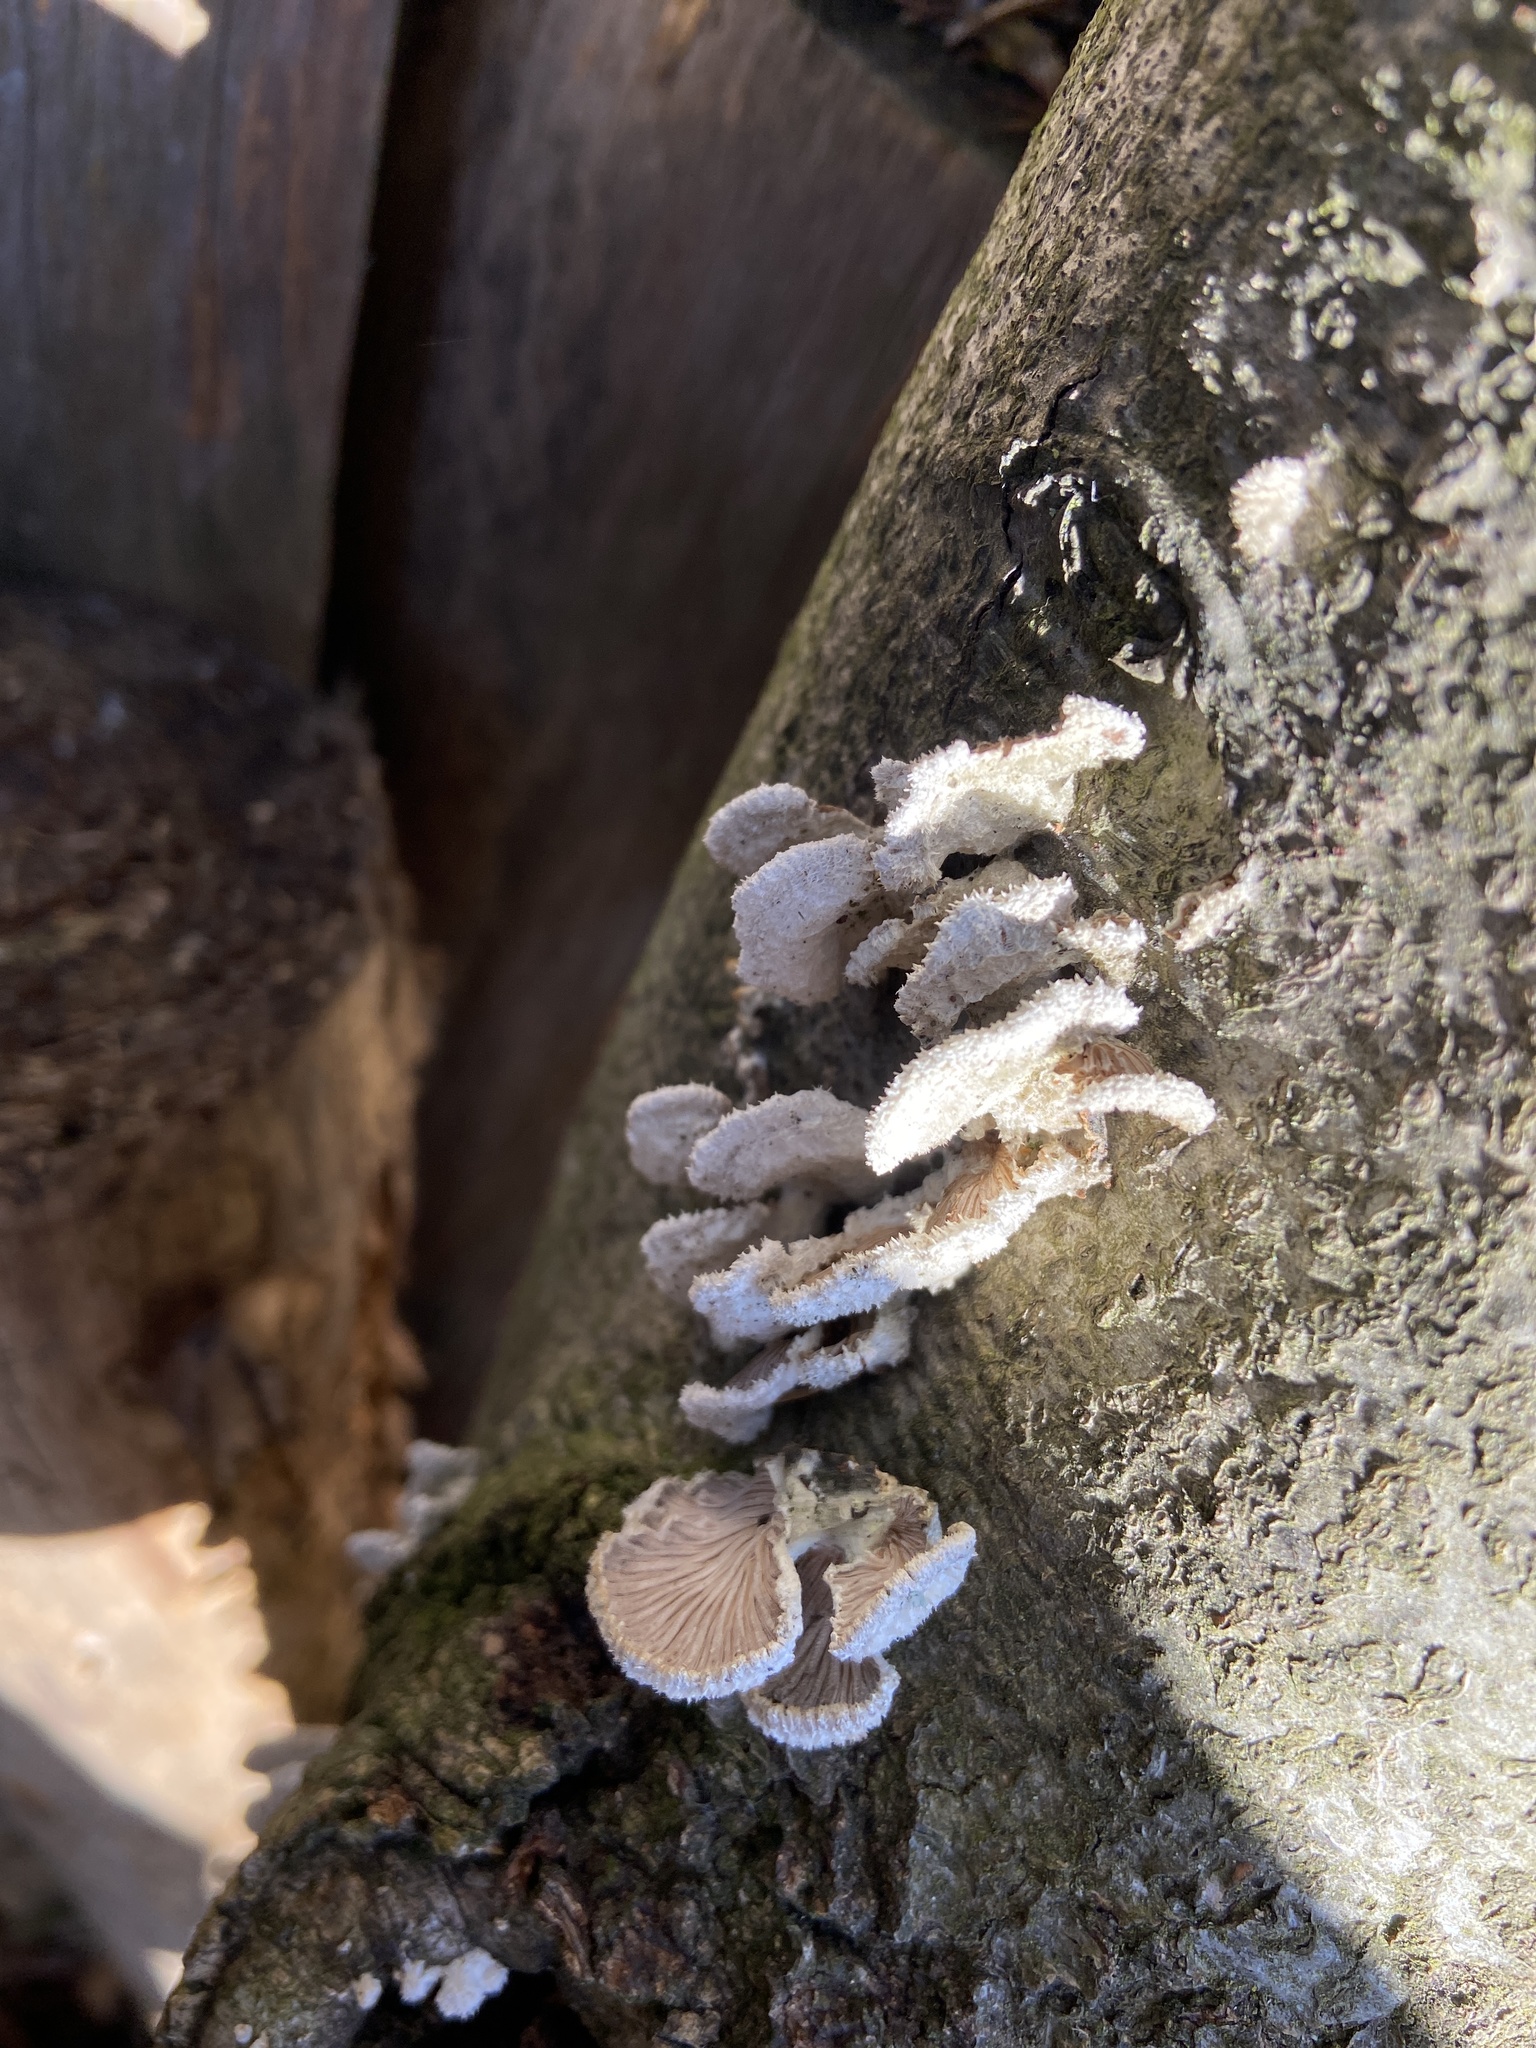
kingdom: Fungi
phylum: Basidiomycota
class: Agaricomycetes
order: Agaricales
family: Schizophyllaceae
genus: Schizophyllum
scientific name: Schizophyllum commune
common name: Common porecrust
